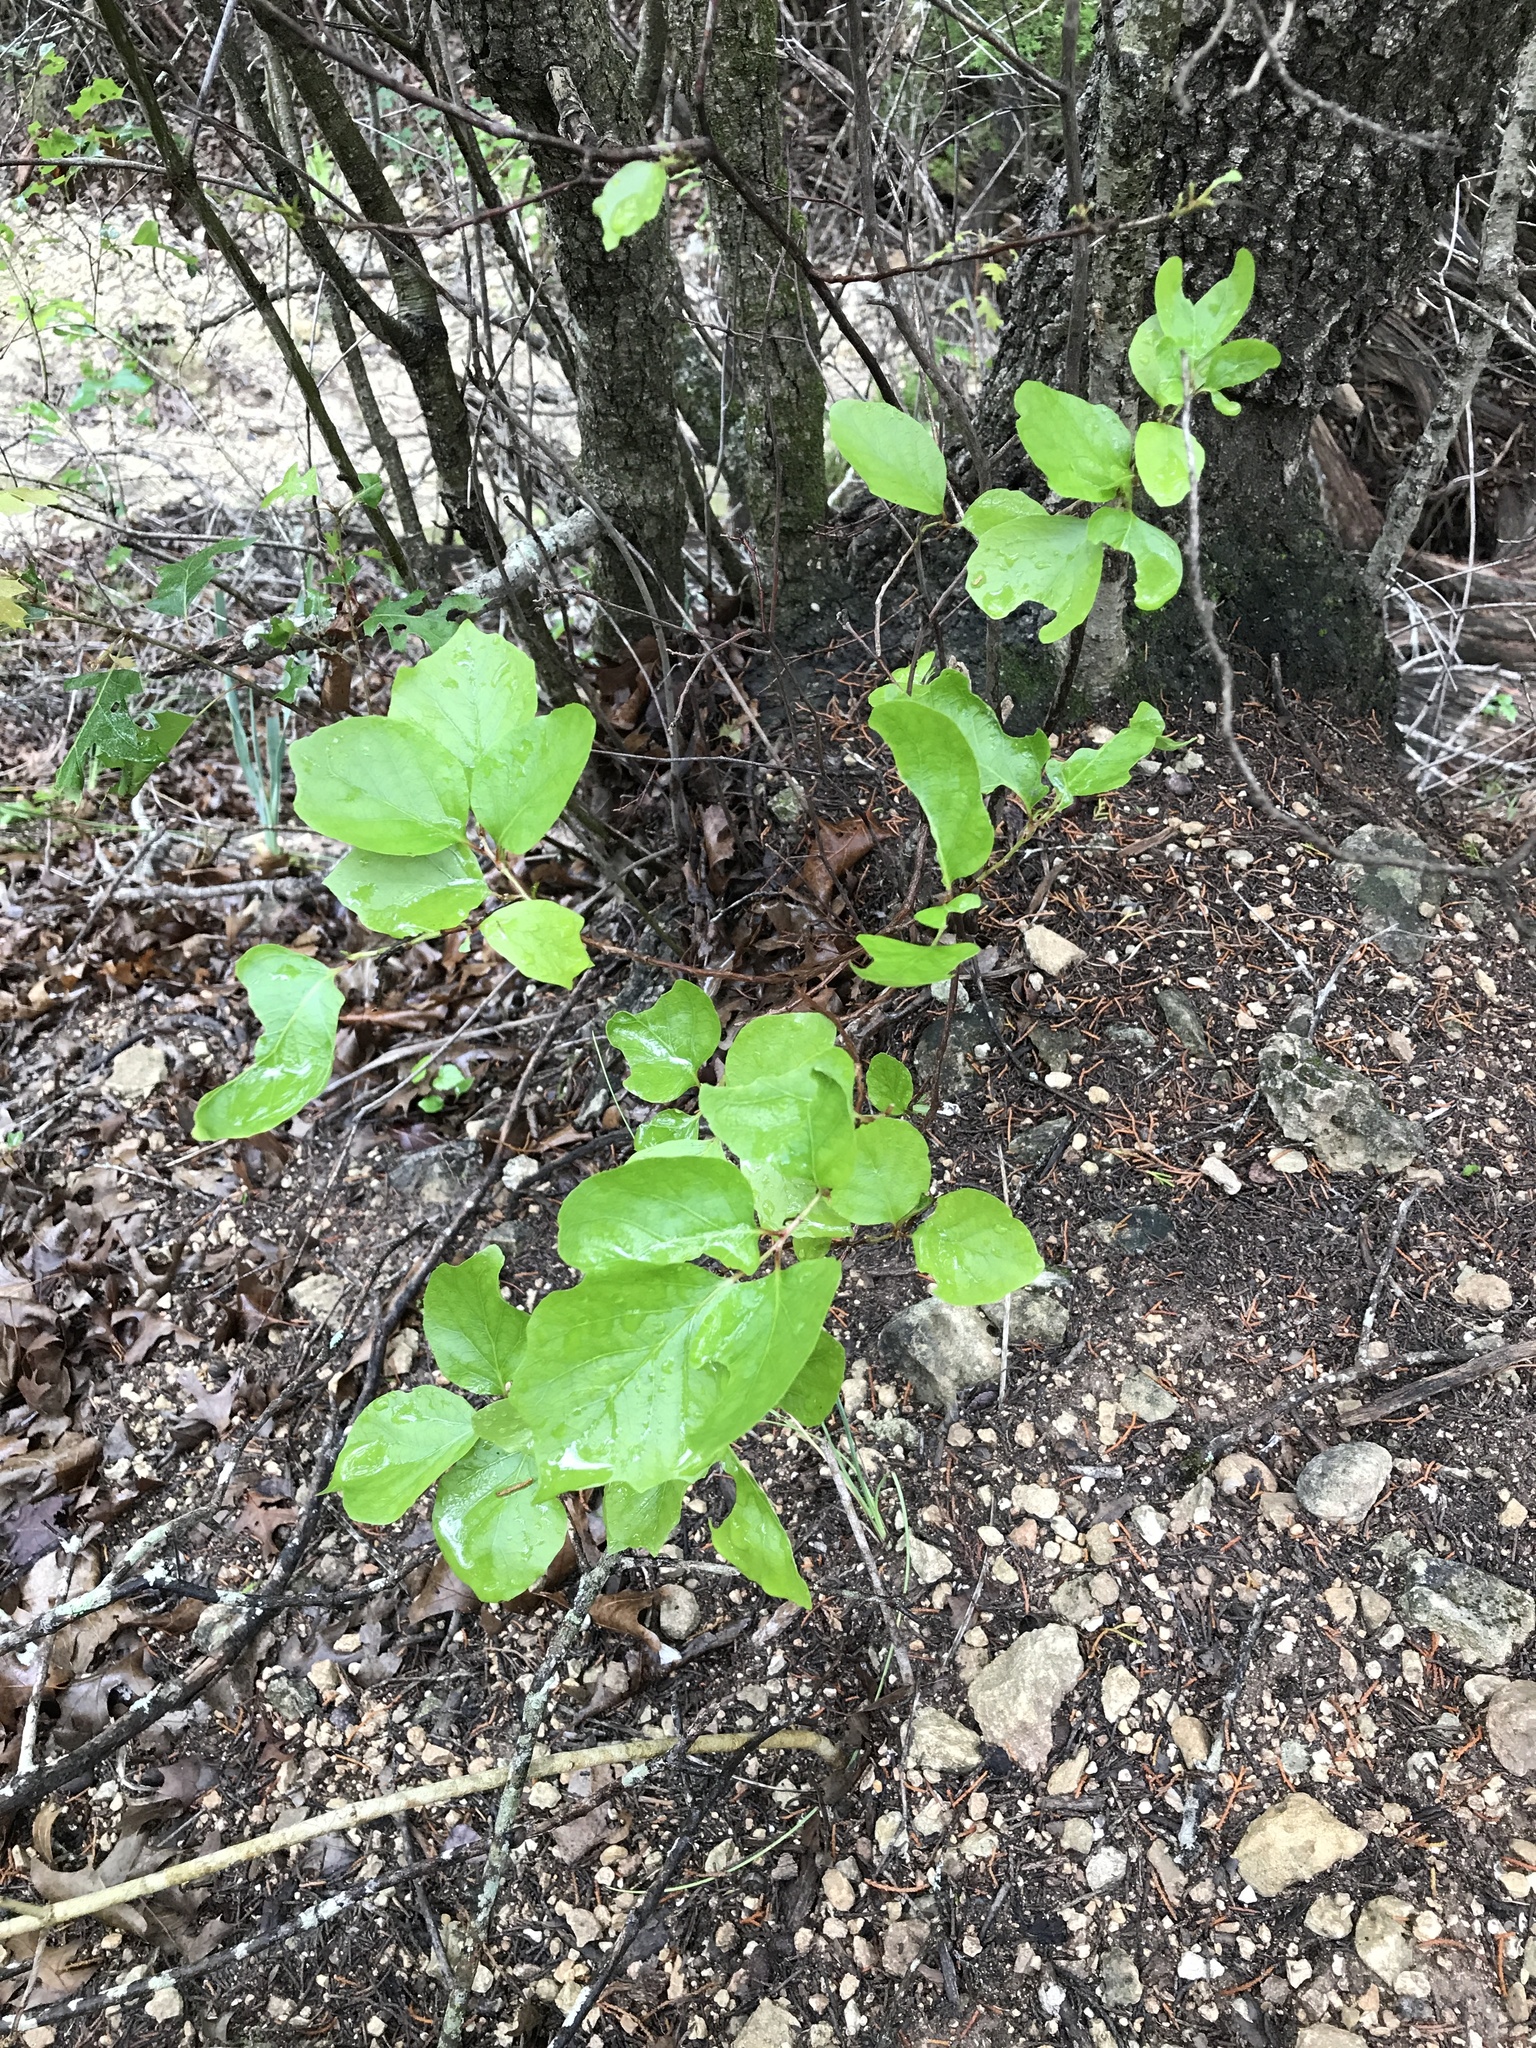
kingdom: Plantae
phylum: Tracheophyta
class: Magnoliopsida
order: Ericales
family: Styracaceae
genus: Styrax
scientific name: Styrax platanifolius
